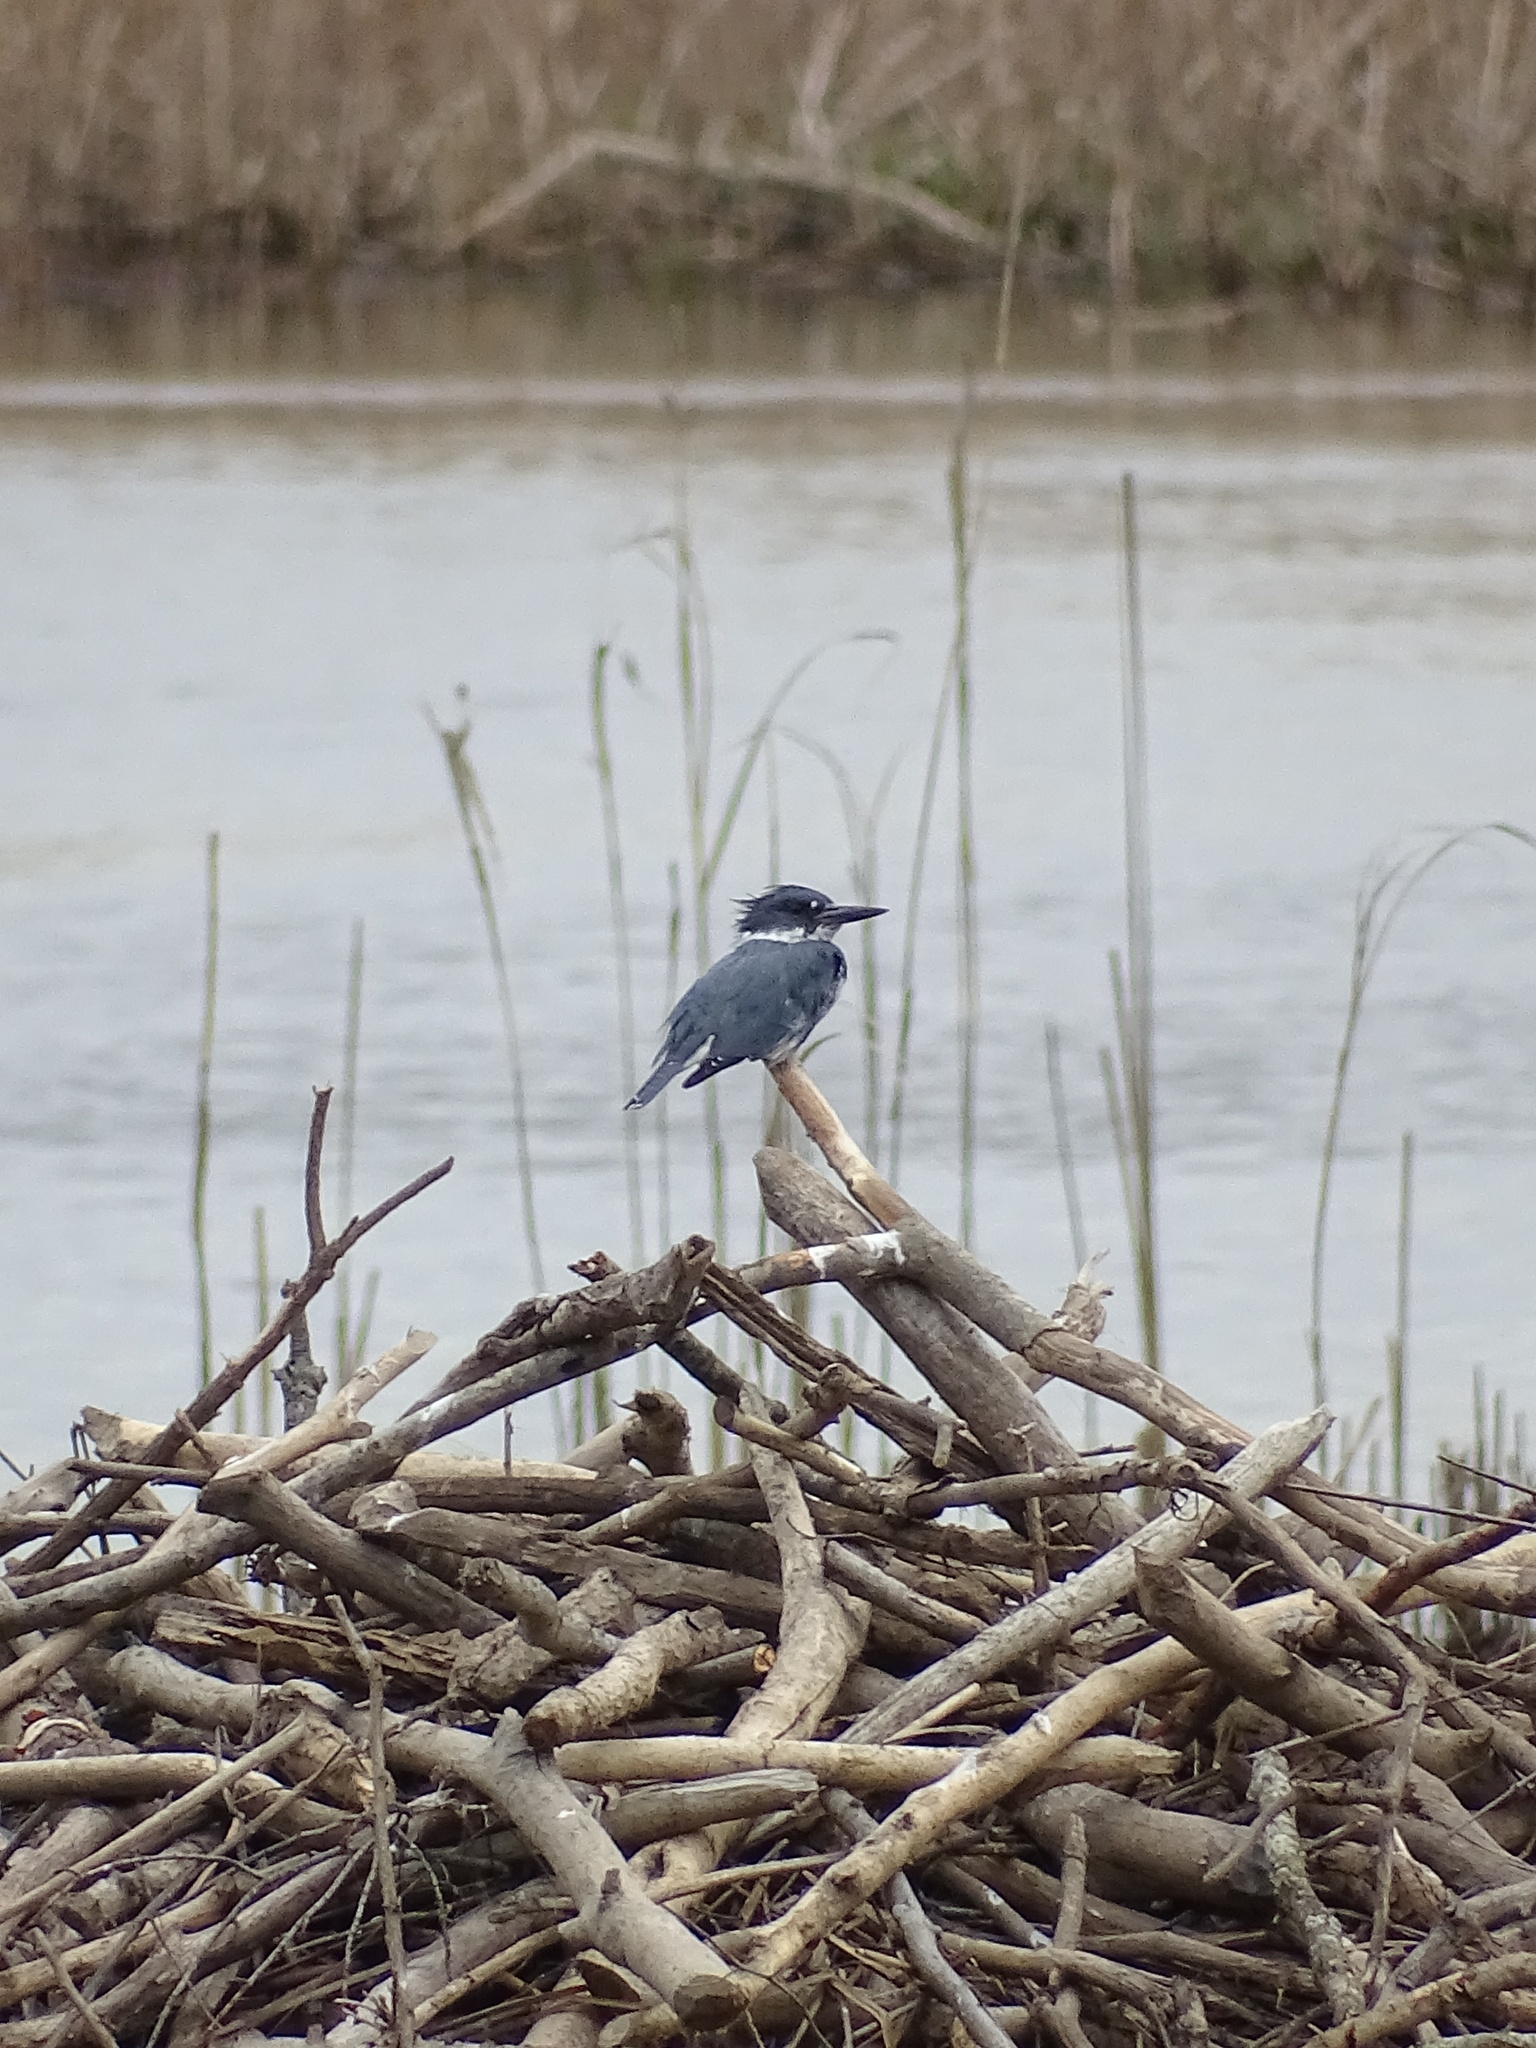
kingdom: Animalia
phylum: Chordata
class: Aves
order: Coraciiformes
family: Alcedinidae
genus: Megaceryle
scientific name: Megaceryle alcyon
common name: Belted kingfisher
